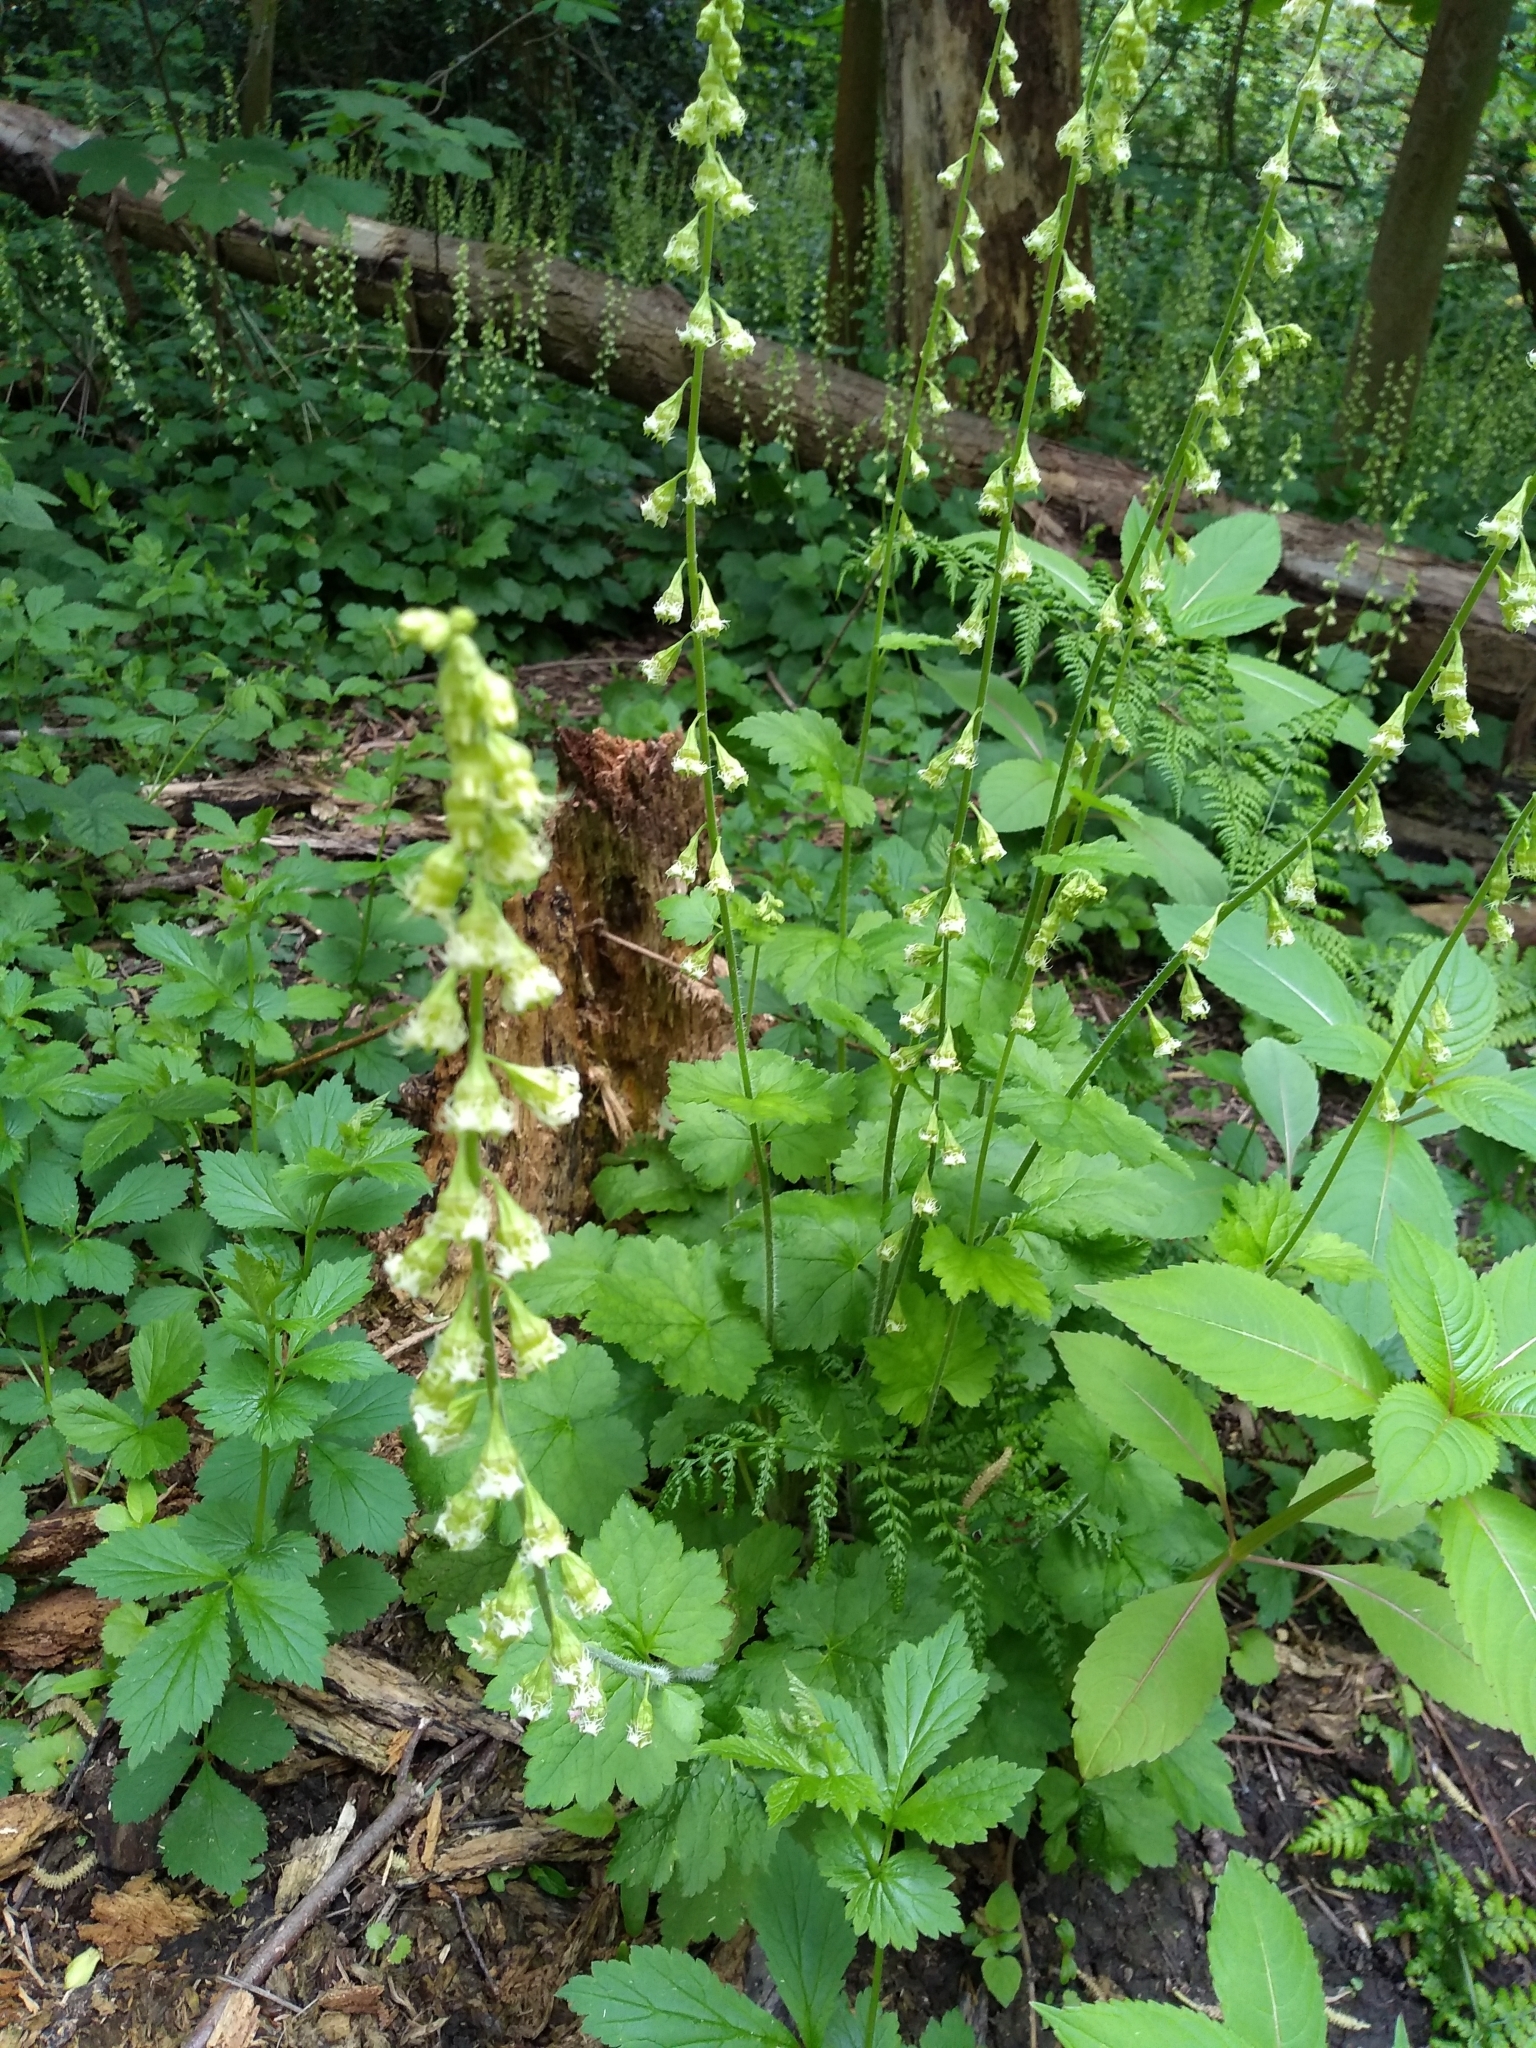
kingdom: Plantae
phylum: Tracheophyta
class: Magnoliopsida
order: Saxifragales
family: Saxifragaceae
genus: Tellima
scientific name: Tellima grandiflora
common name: Fringecups
